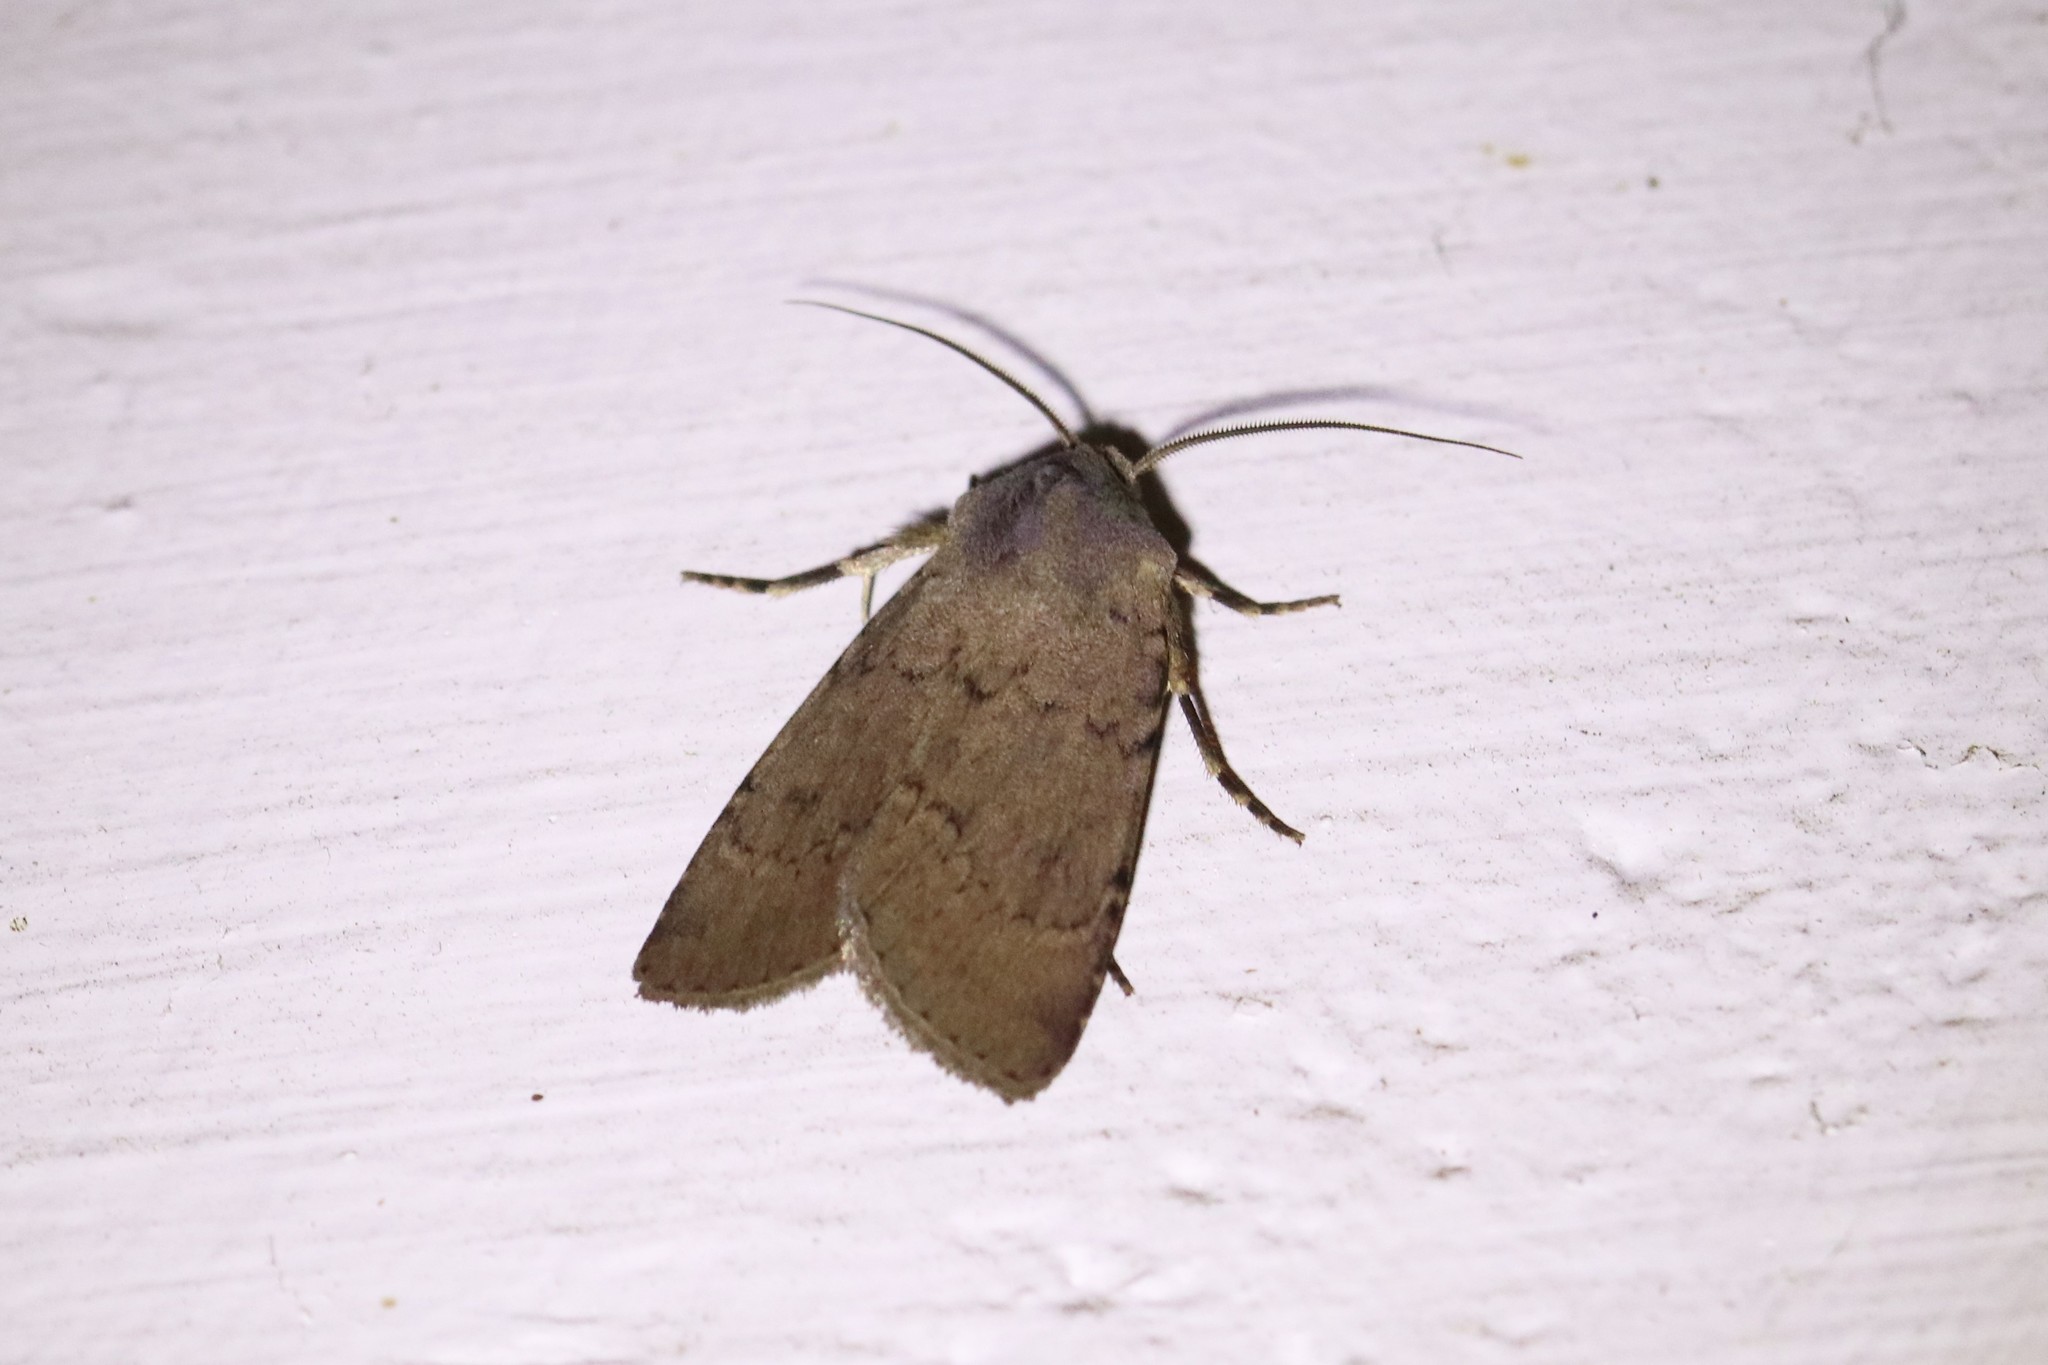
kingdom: Animalia
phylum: Arthropoda
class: Insecta
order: Lepidoptera
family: Noctuidae
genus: Graphiphora
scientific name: Graphiphora augur
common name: Double dart
